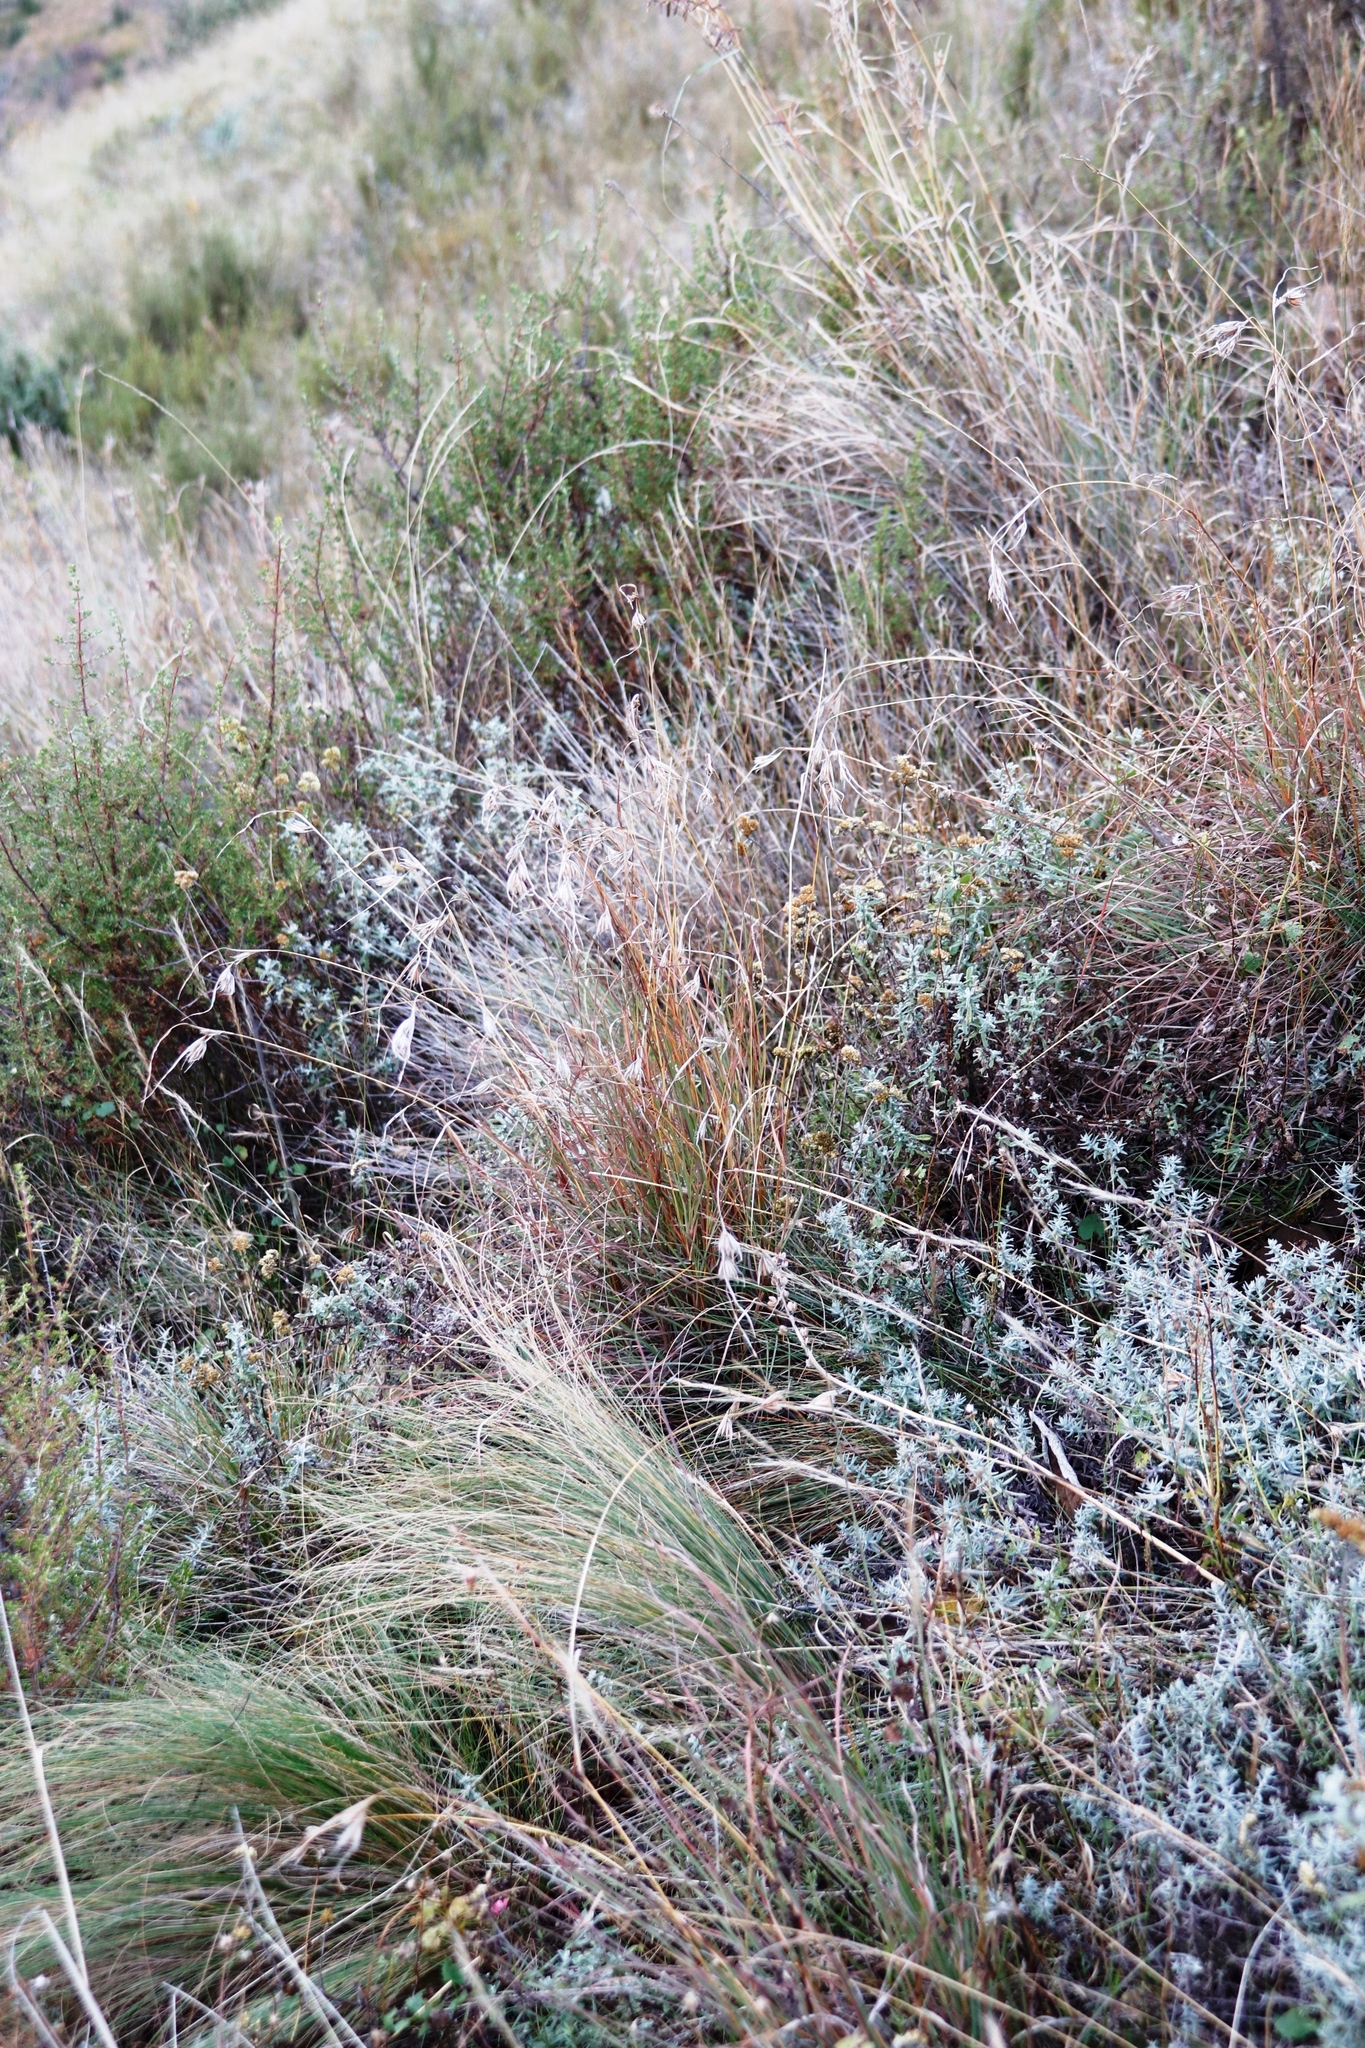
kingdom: Plantae
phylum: Tracheophyta
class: Liliopsida
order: Poales
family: Poaceae
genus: Themeda
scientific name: Themeda triandra
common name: Kangaroo grass
